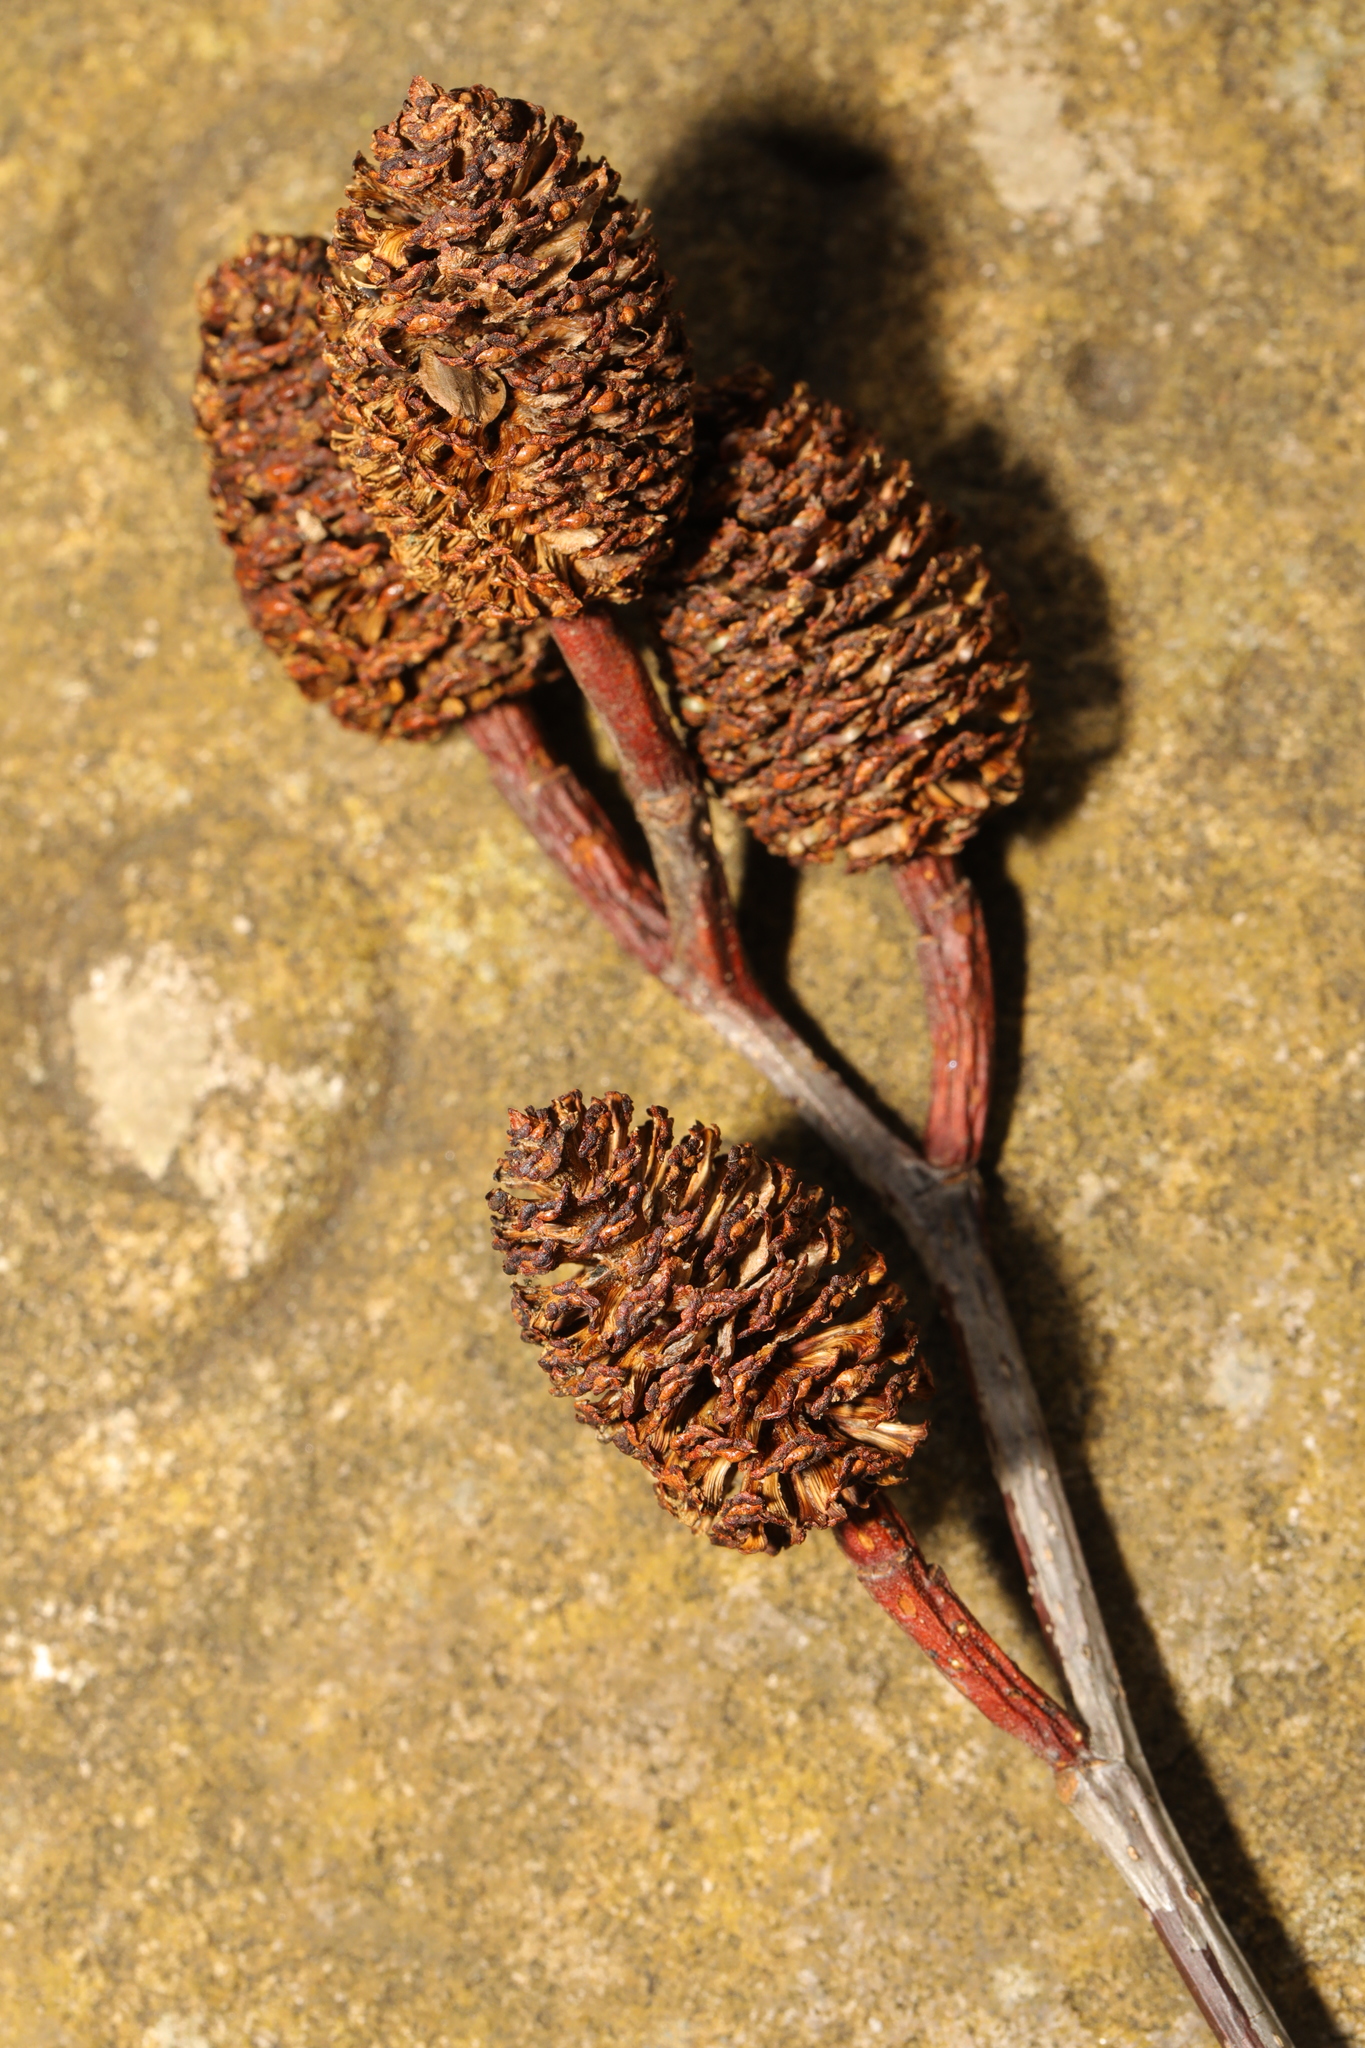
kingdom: Plantae
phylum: Tracheophyta
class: Magnoliopsida
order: Fagales
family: Betulaceae
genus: Alnus
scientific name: Alnus cordata
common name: Italian alder
